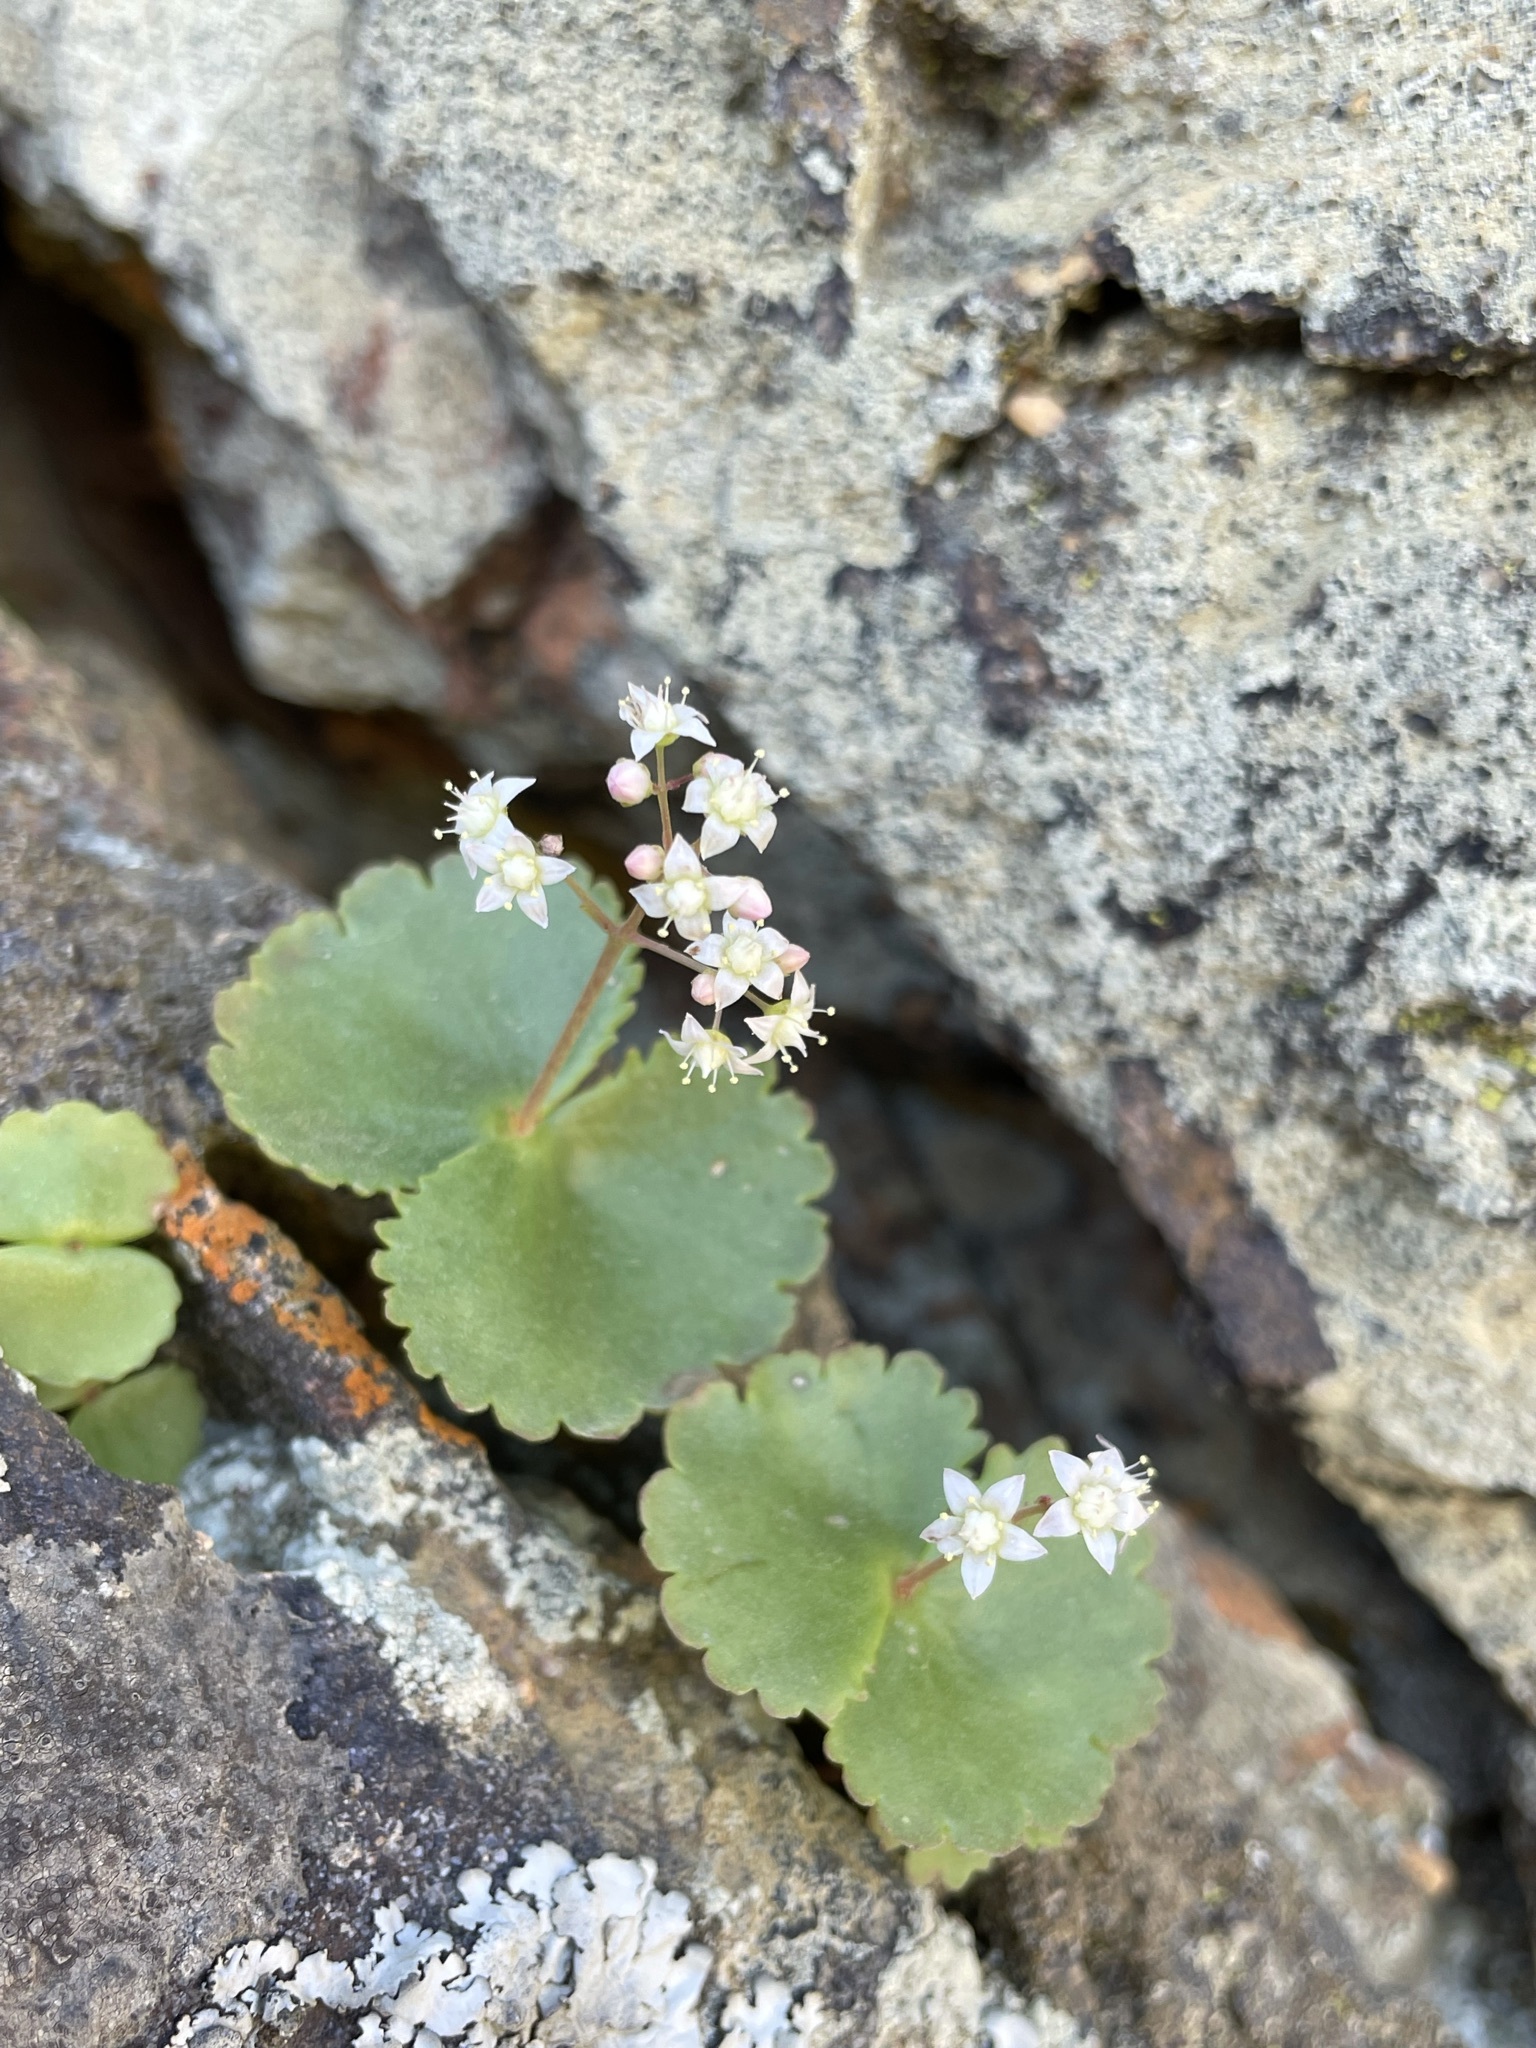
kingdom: Plantae
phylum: Tracheophyta
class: Magnoliopsida
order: Saxifragales
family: Crassulaceae
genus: Crassula
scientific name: Crassula umbella
